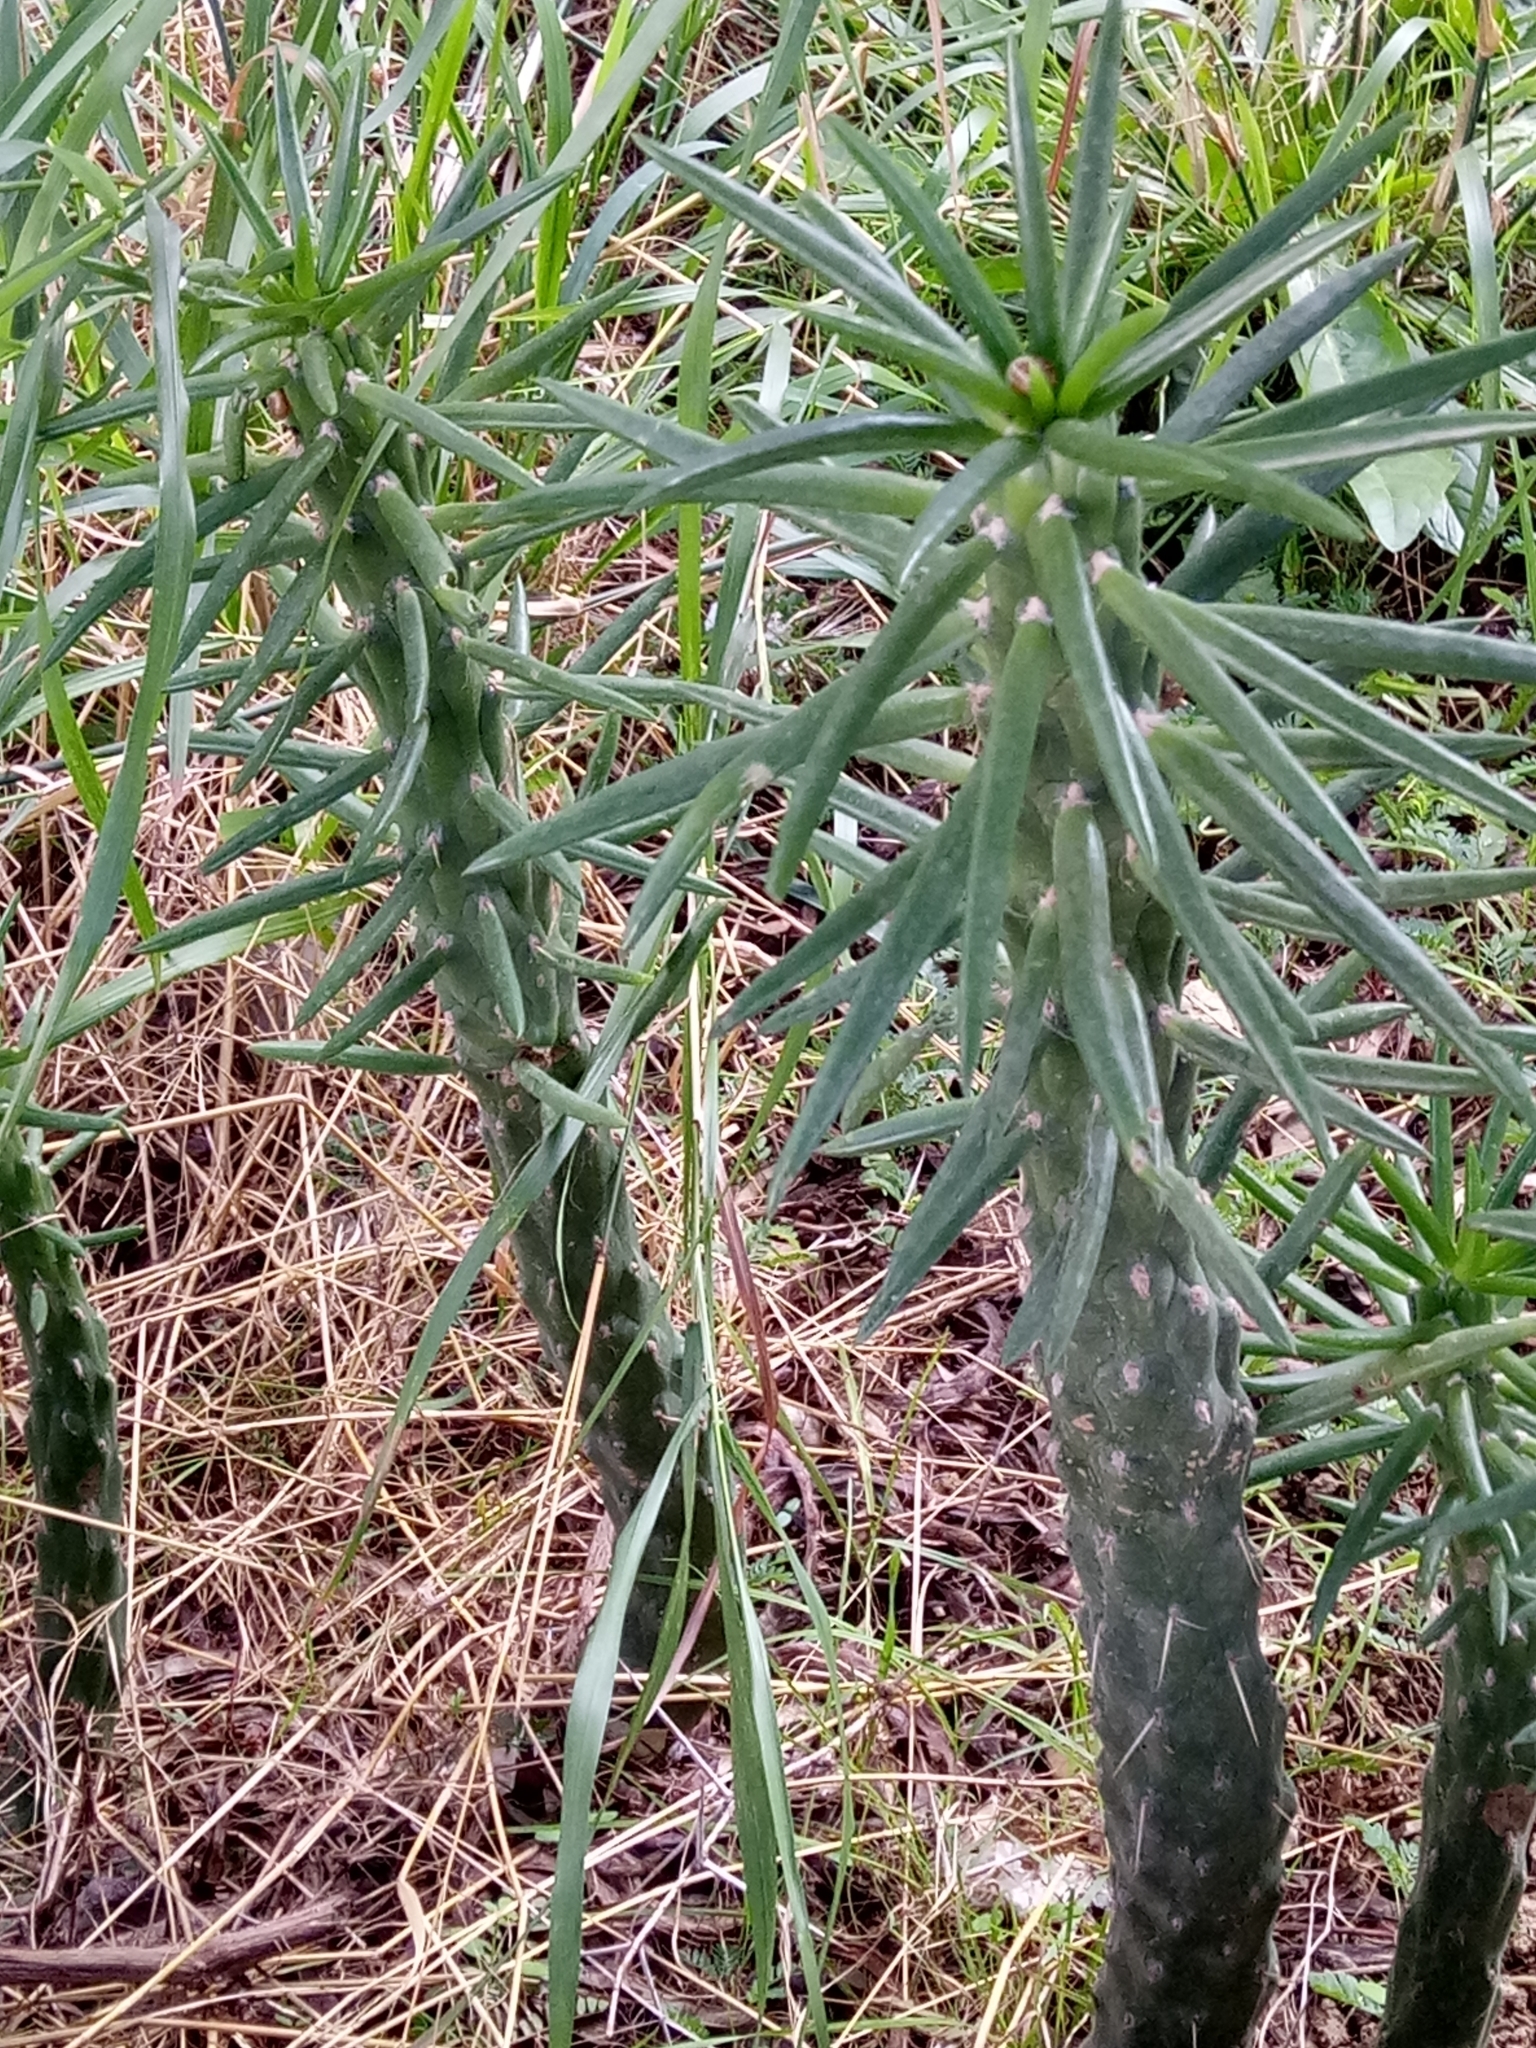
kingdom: Plantae
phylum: Tracheophyta
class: Magnoliopsida
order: Caryophyllales
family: Cactaceae
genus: Austrocylindropuntia
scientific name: Austrocylindropuntia subulata
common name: Eve's needle cactus
